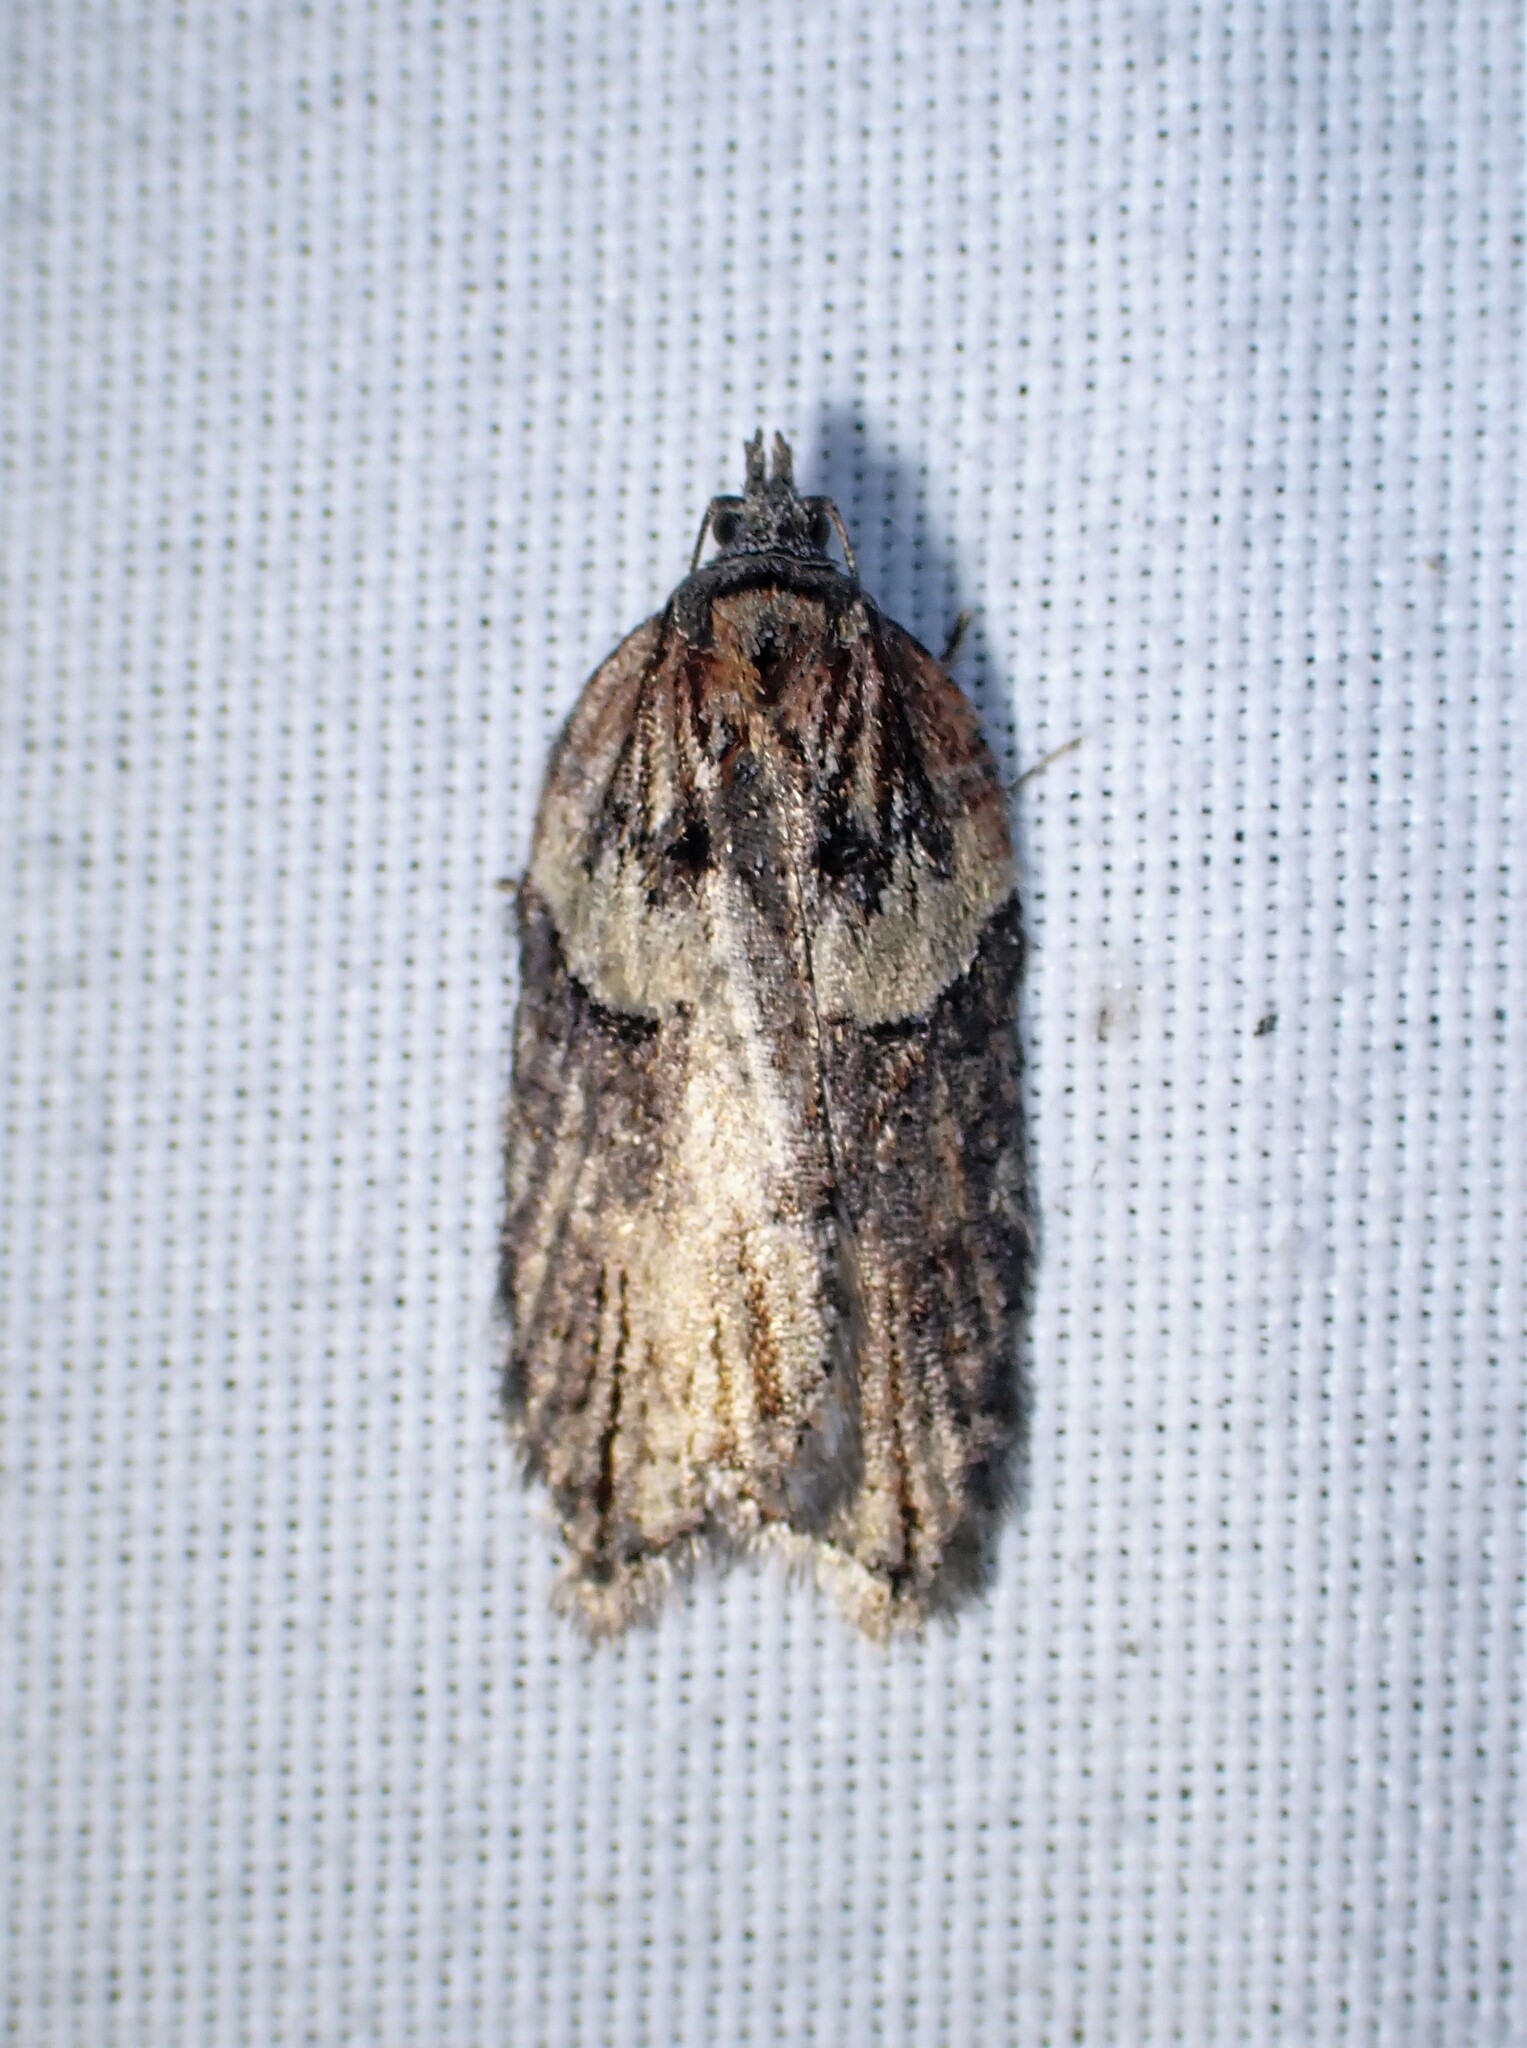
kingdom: Animalia
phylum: Arthropoda
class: Insecta
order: Lepidoptera
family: Tortricidae
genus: Acleris
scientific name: Acleris hastiana
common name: Sallow button
